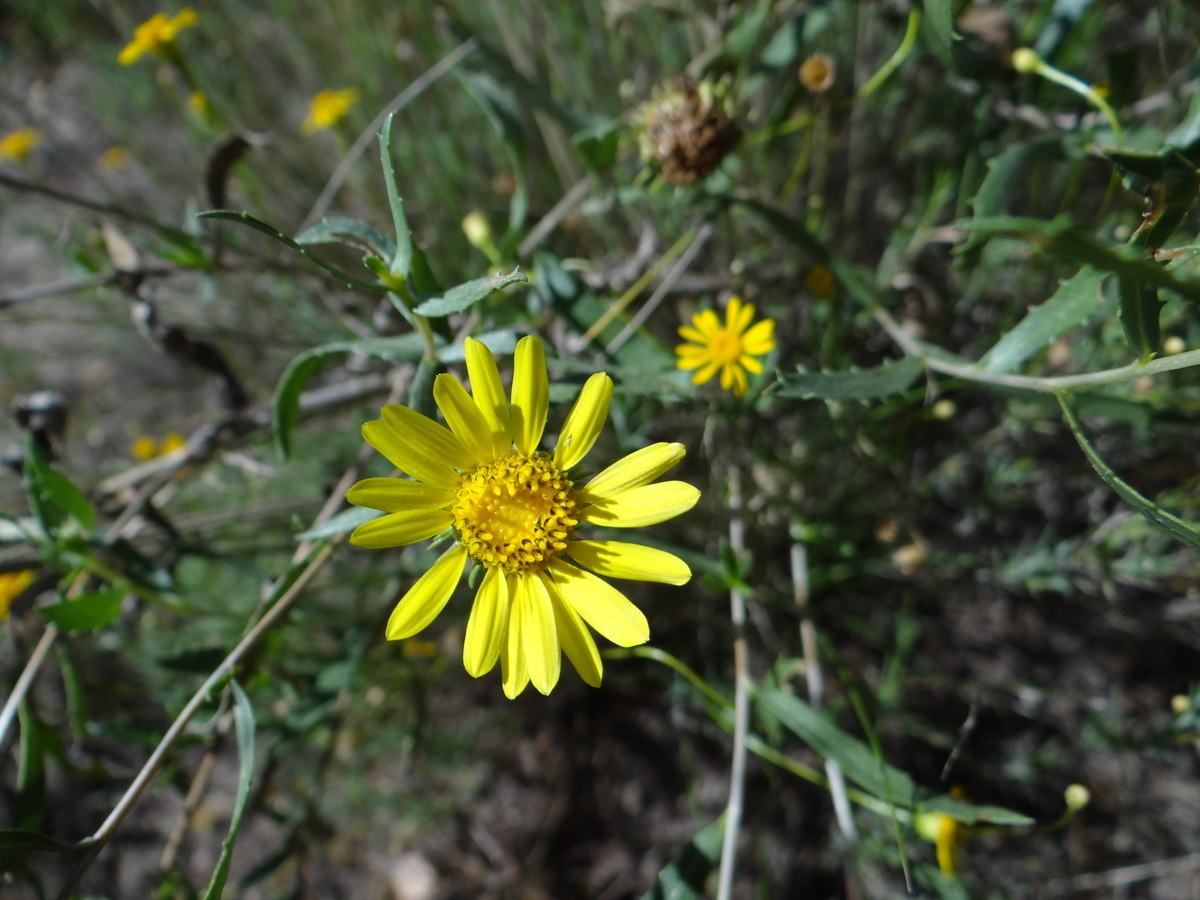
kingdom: Plantae
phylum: Tracheophyta
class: Magnoliopsida
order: Asterales
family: Asteraceae
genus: Grindelia
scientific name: Grindelia brachystephana
